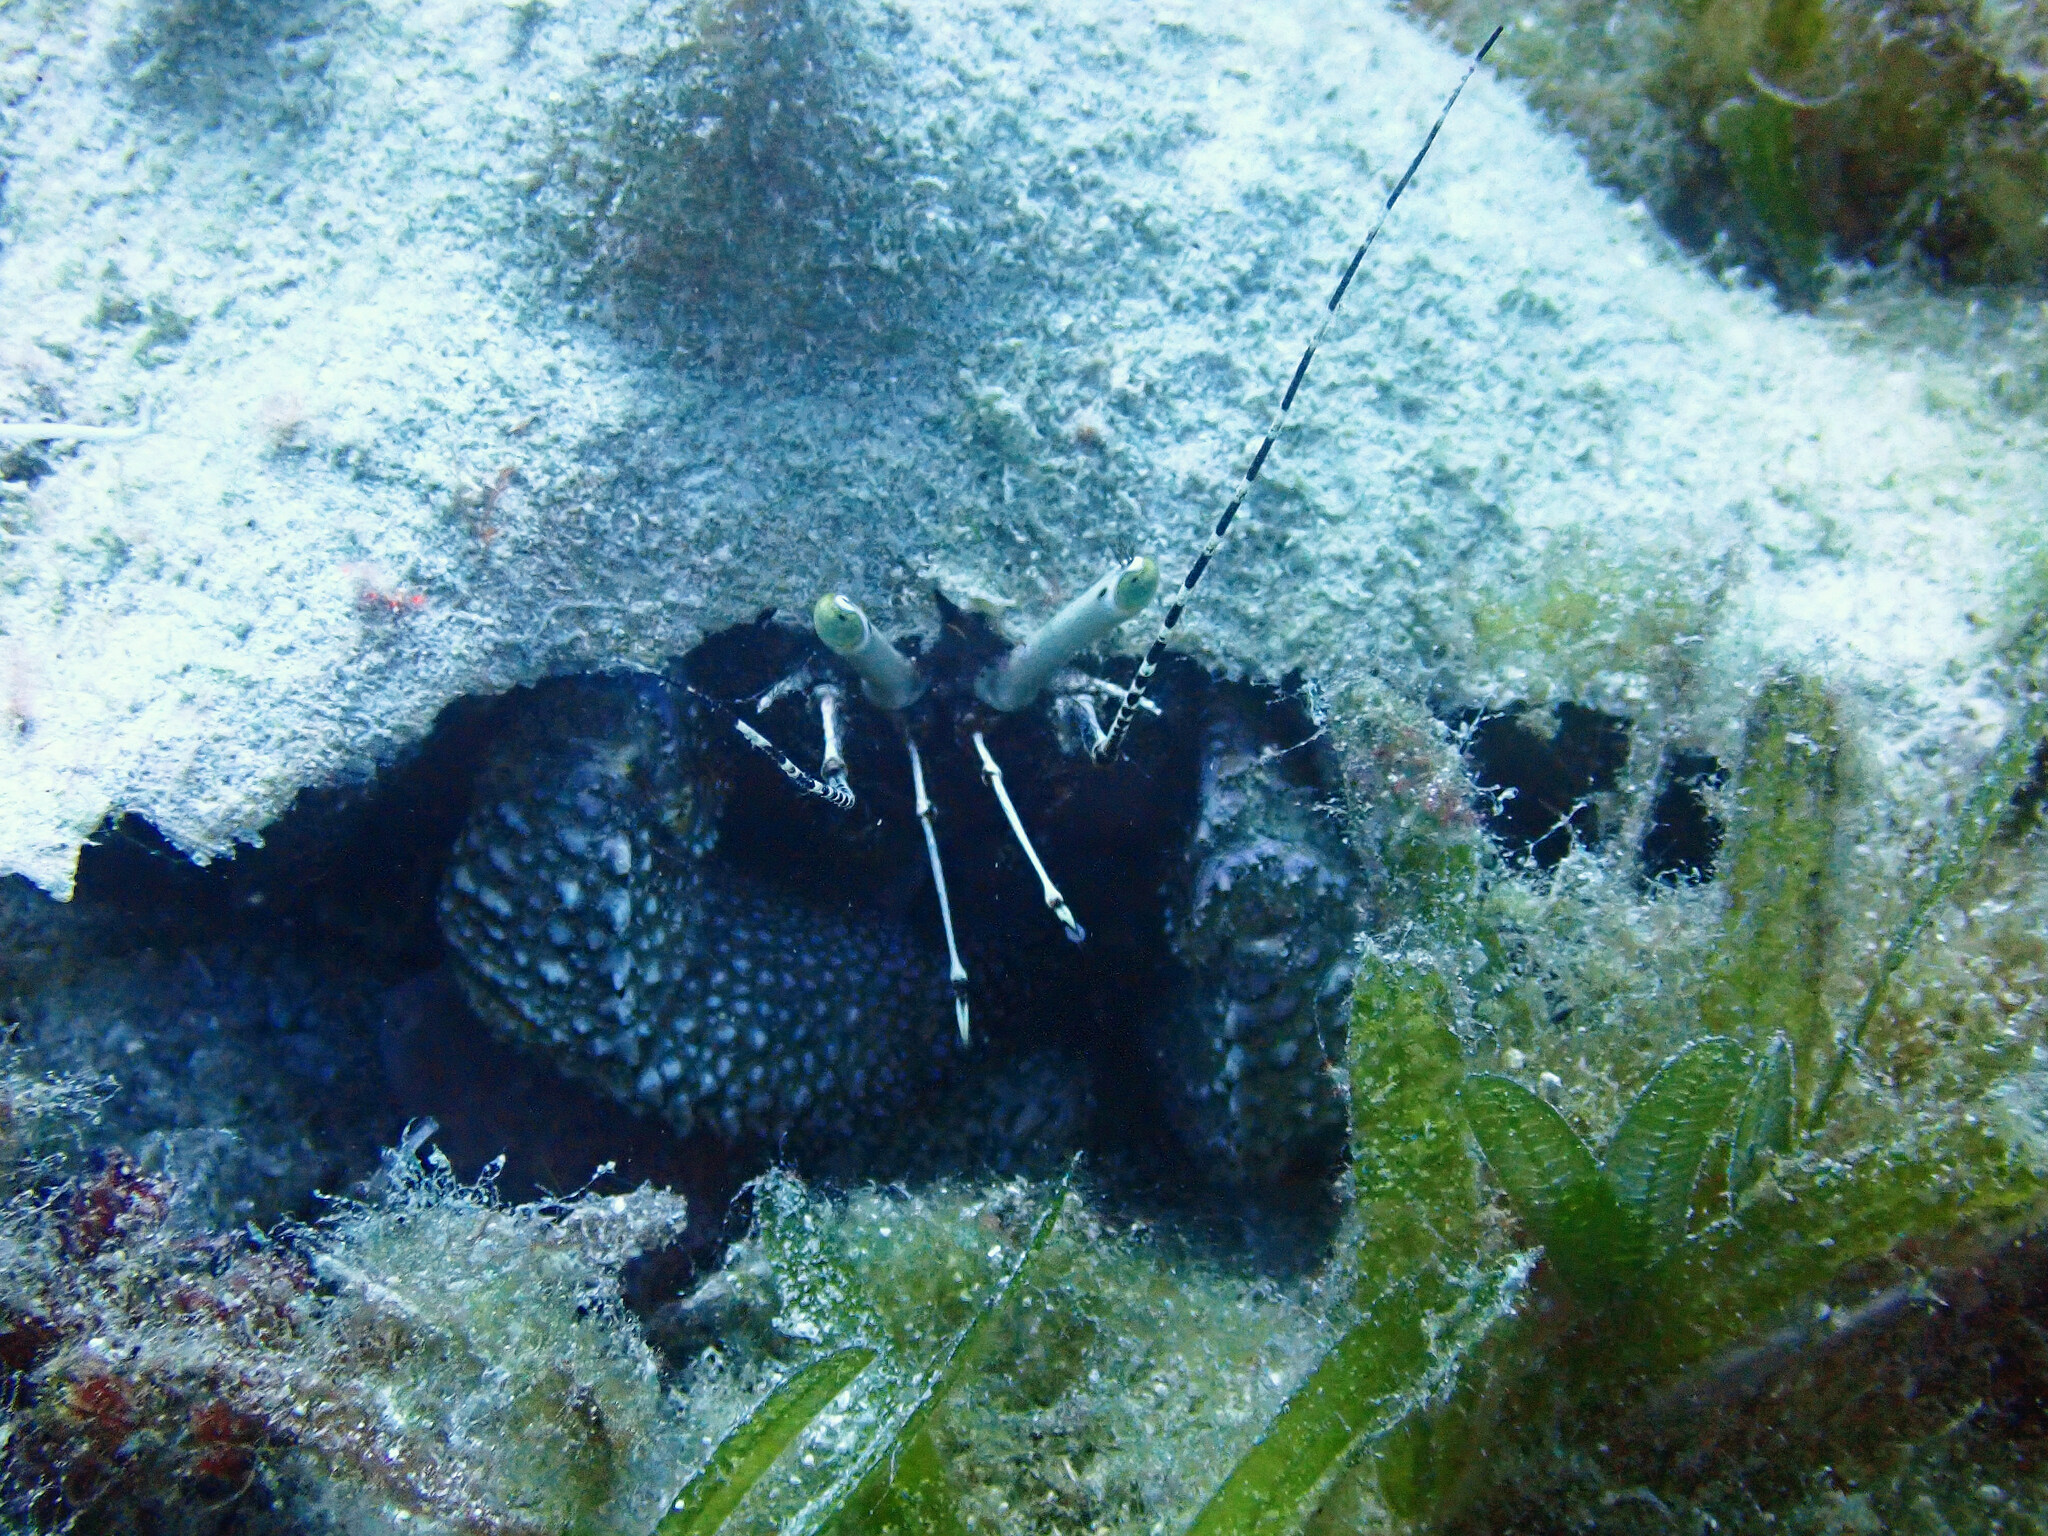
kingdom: Animalia
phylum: Arthropoda
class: Malacostraca
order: Decapoda
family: Diogenidae
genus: Petrochirus
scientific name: Petrochirus diogenes
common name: Giant hermit crab
